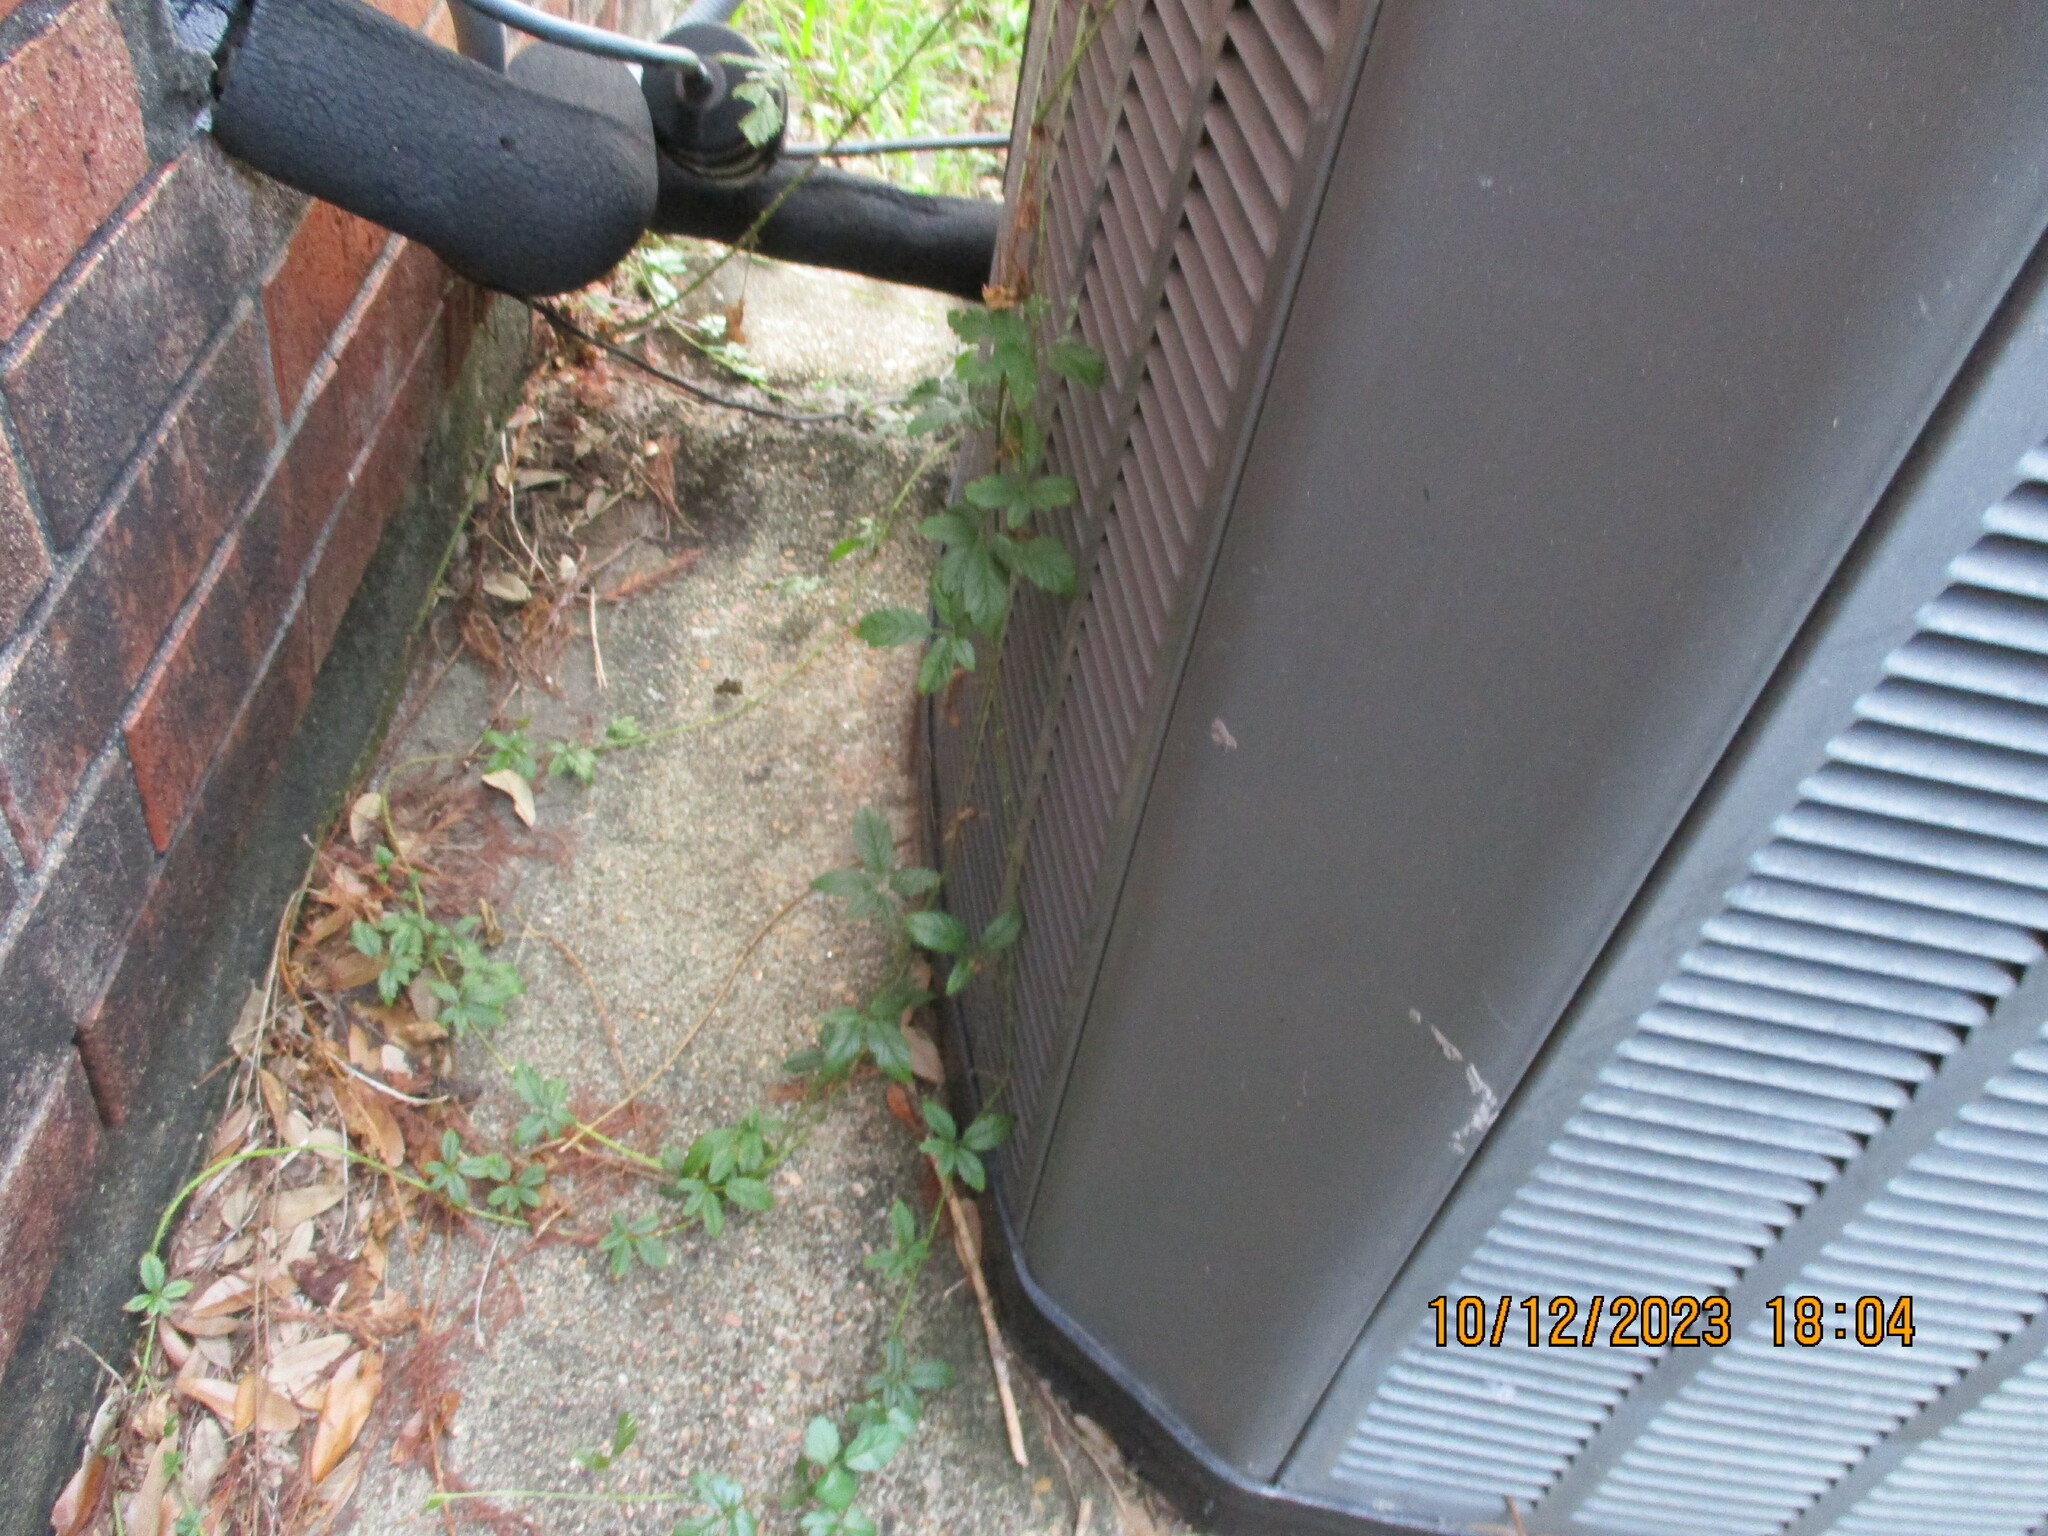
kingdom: Plantae
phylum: Tracheophyta
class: Magnoliopsida
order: Rosales
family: Rosaceae
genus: Rubus
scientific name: Rubus trivialis
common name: Southern dewberry
